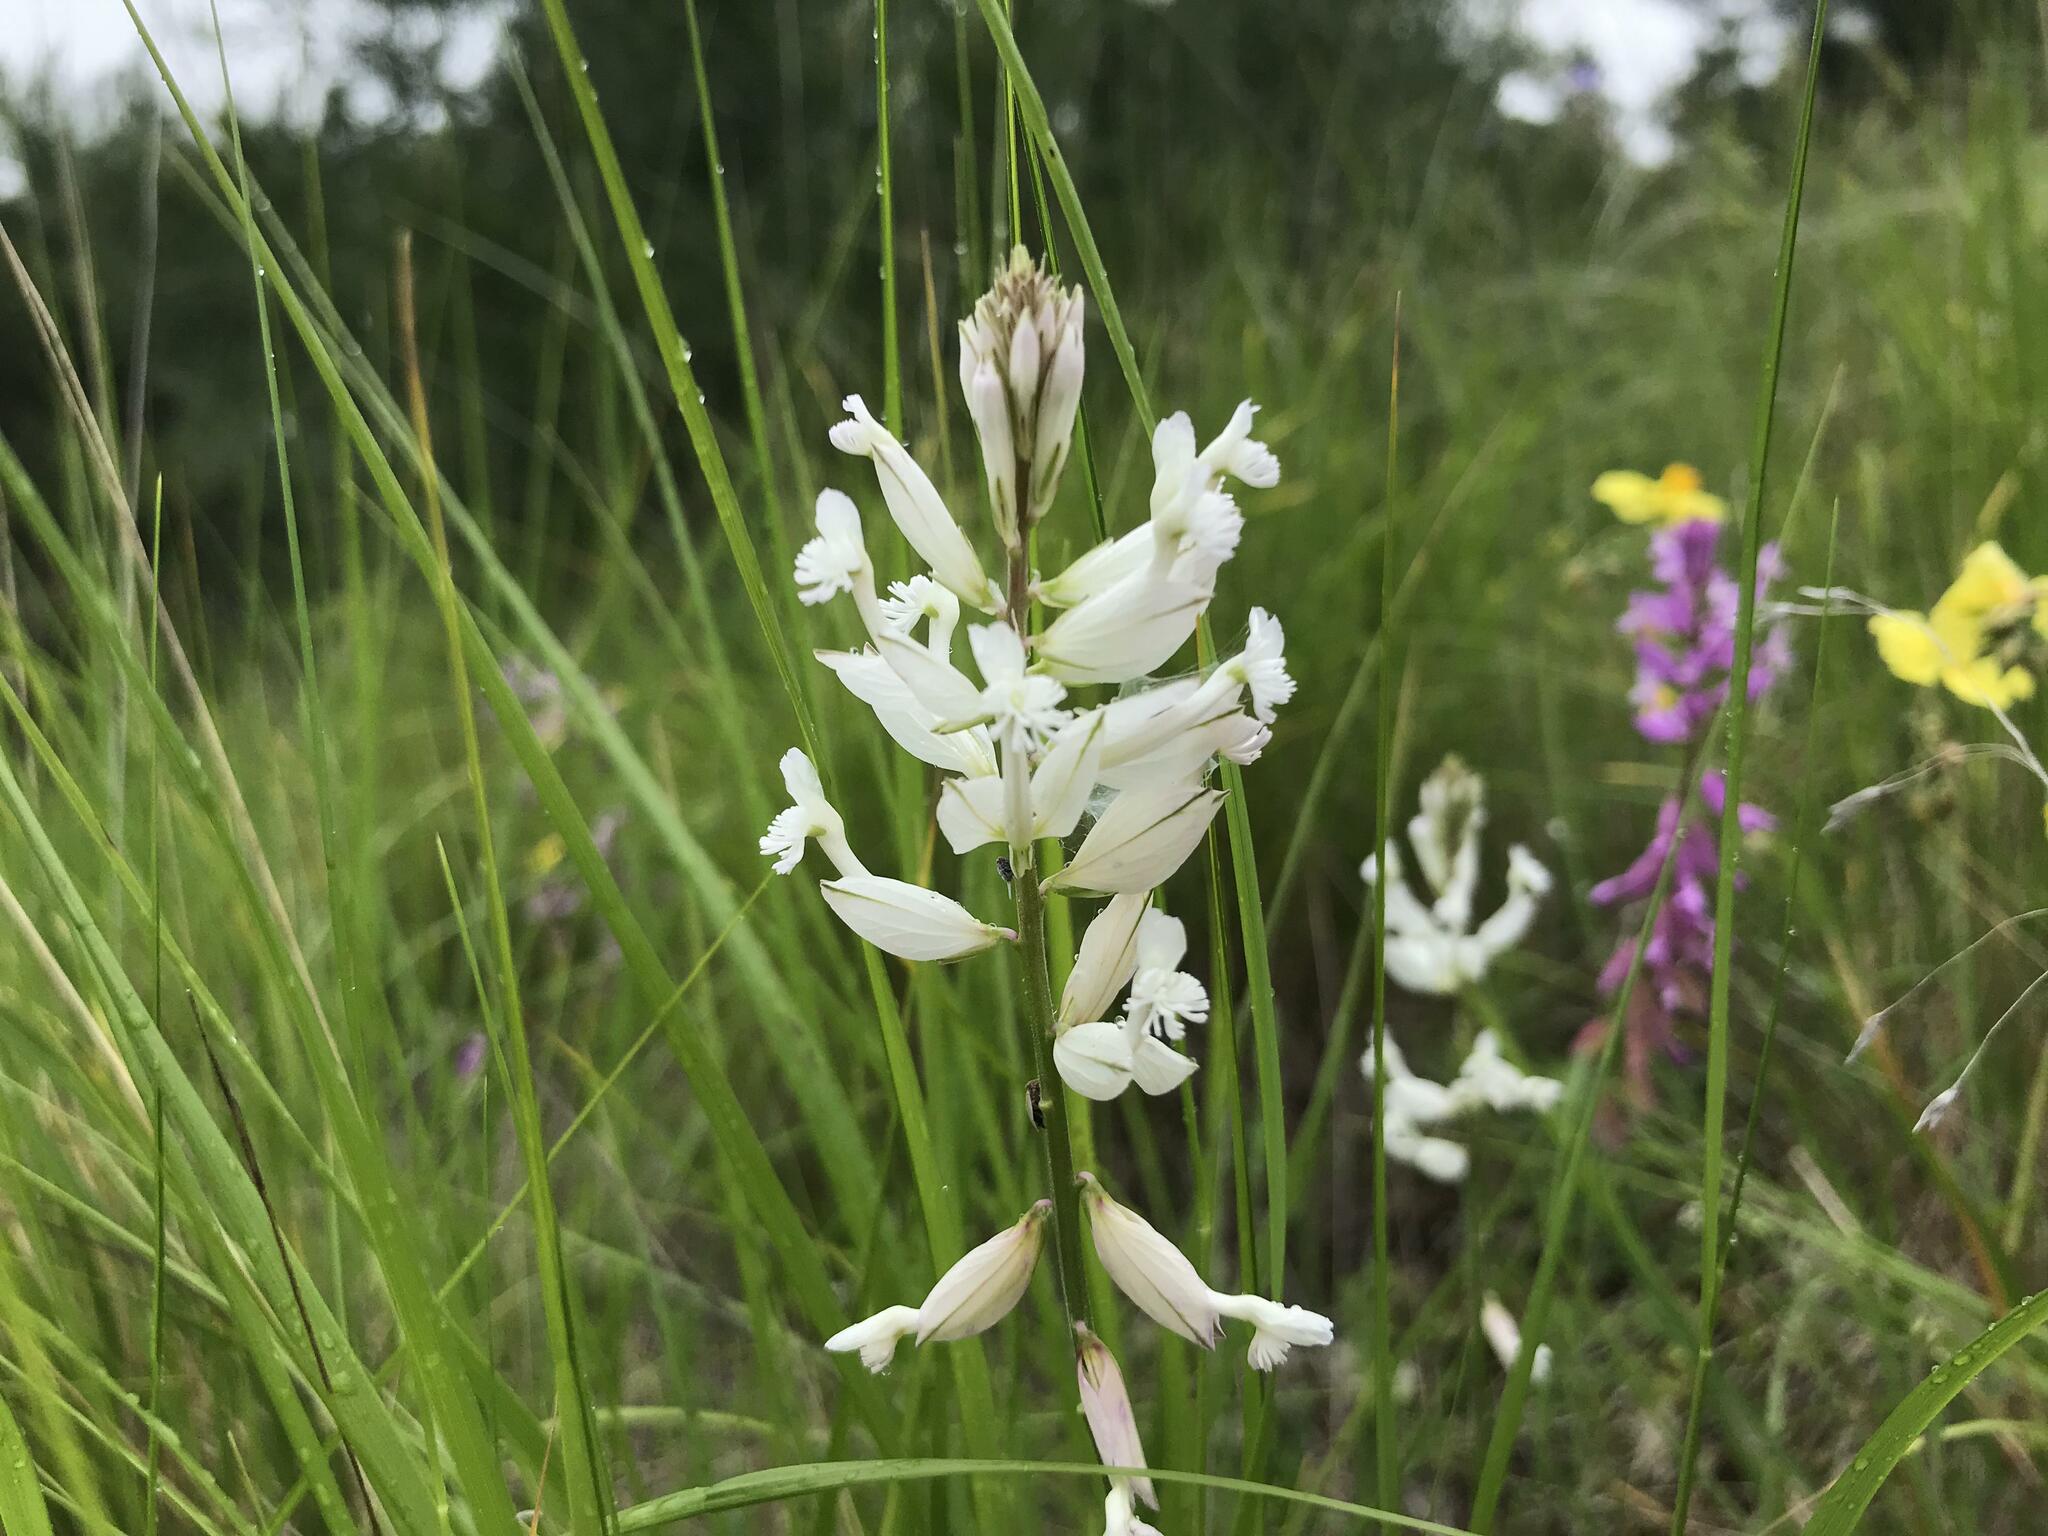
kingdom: Plantae
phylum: Tracheophyta
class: Magnoliopsida
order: Fabales
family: Polygalaceae
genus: Polygala
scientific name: Polygala major
